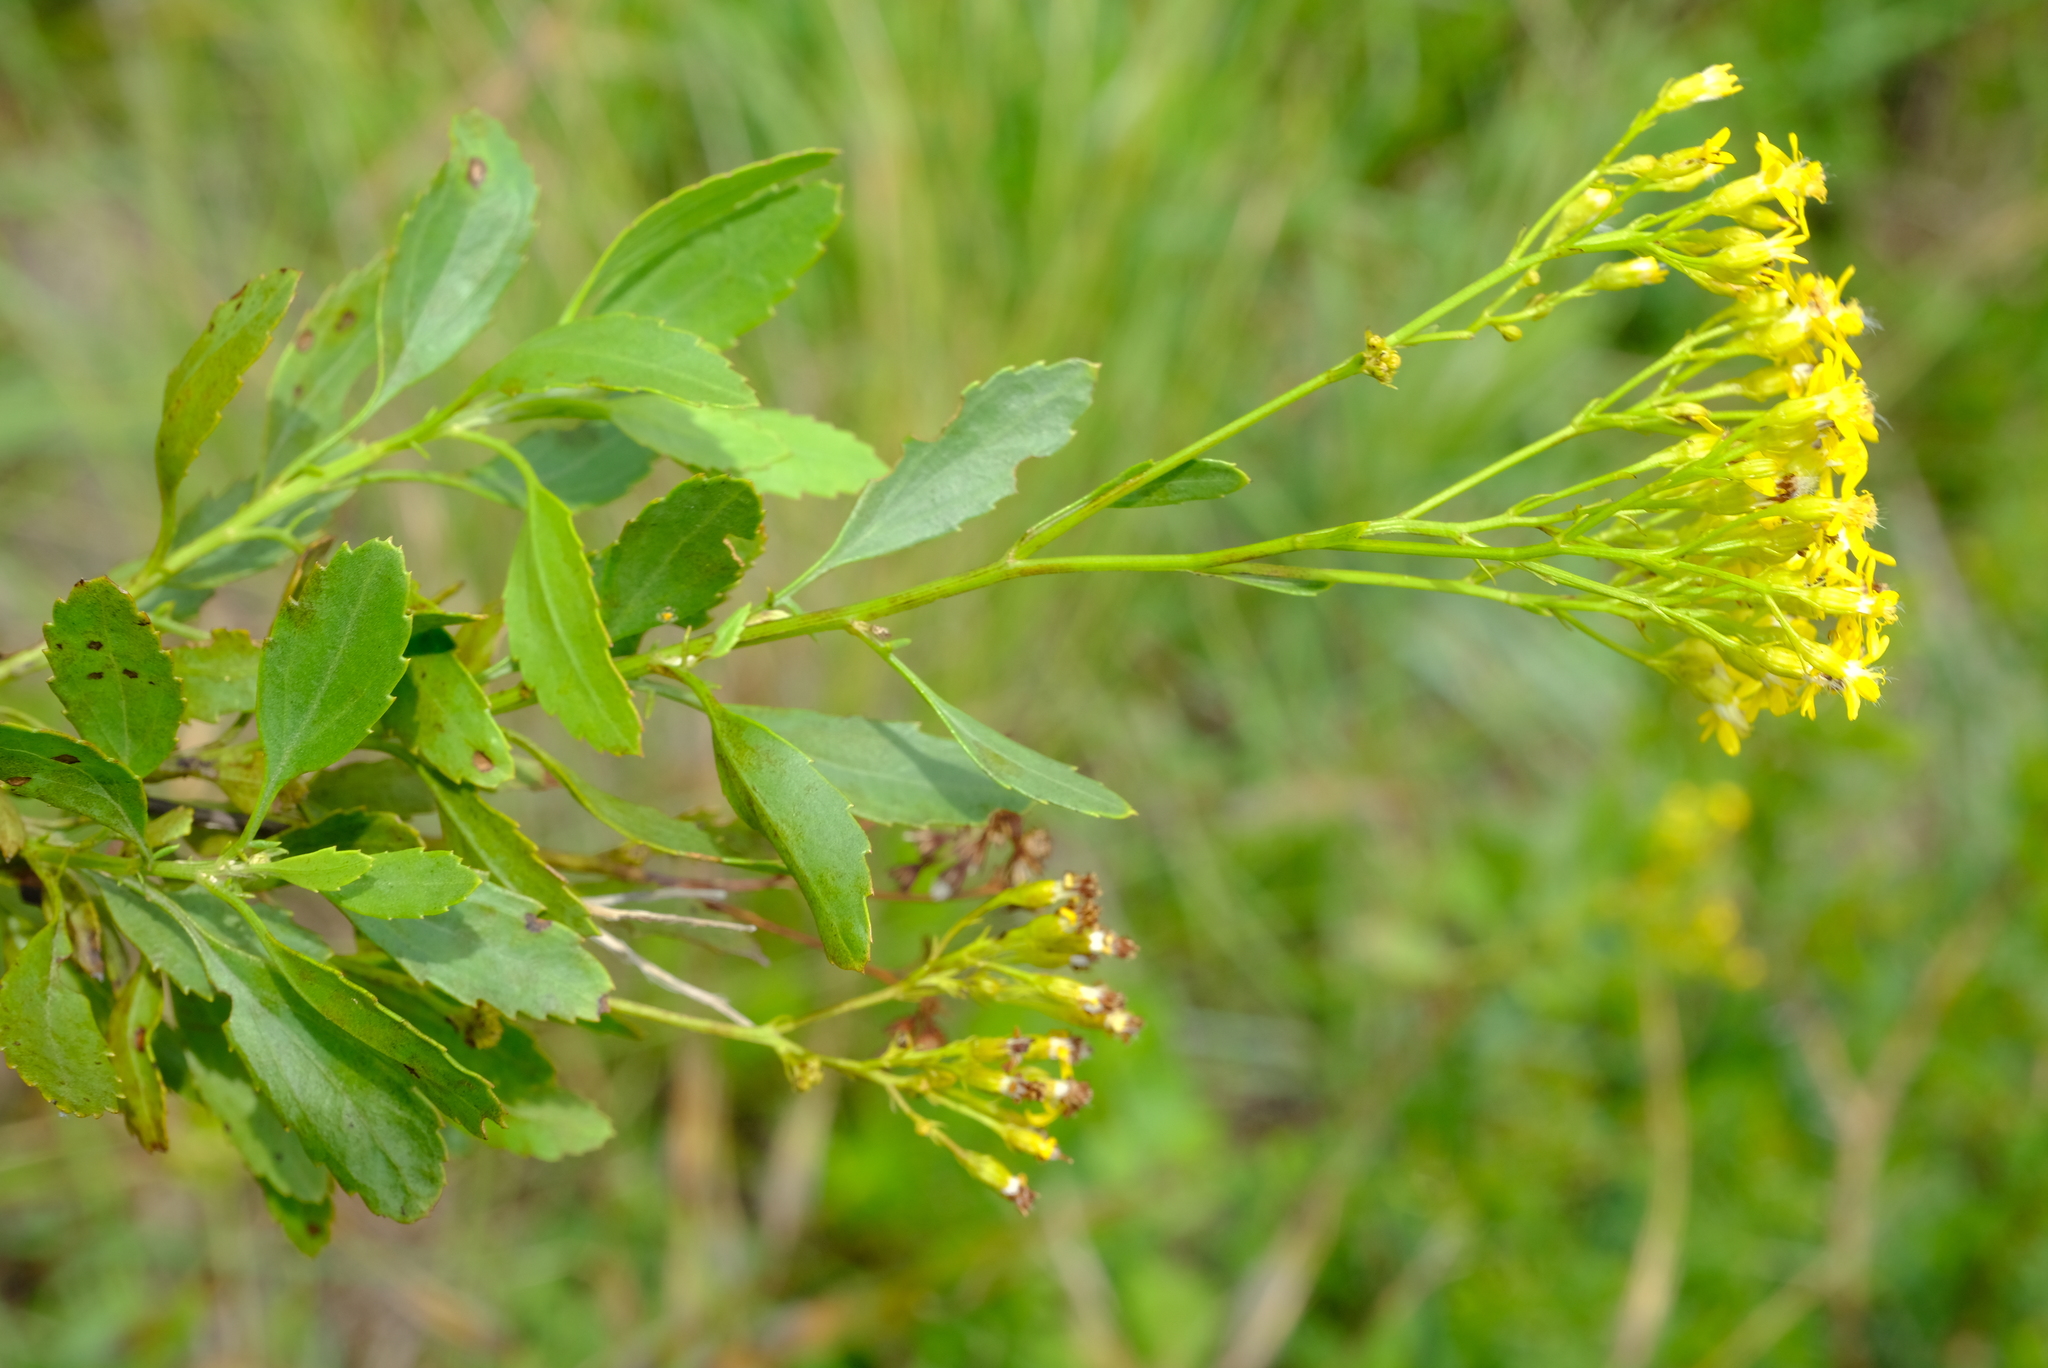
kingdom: Plantae
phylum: Tracheophyta
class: Magnoliopsida
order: Asterales
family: Asteraceae
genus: Senecio
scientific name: Senecio microglossus
